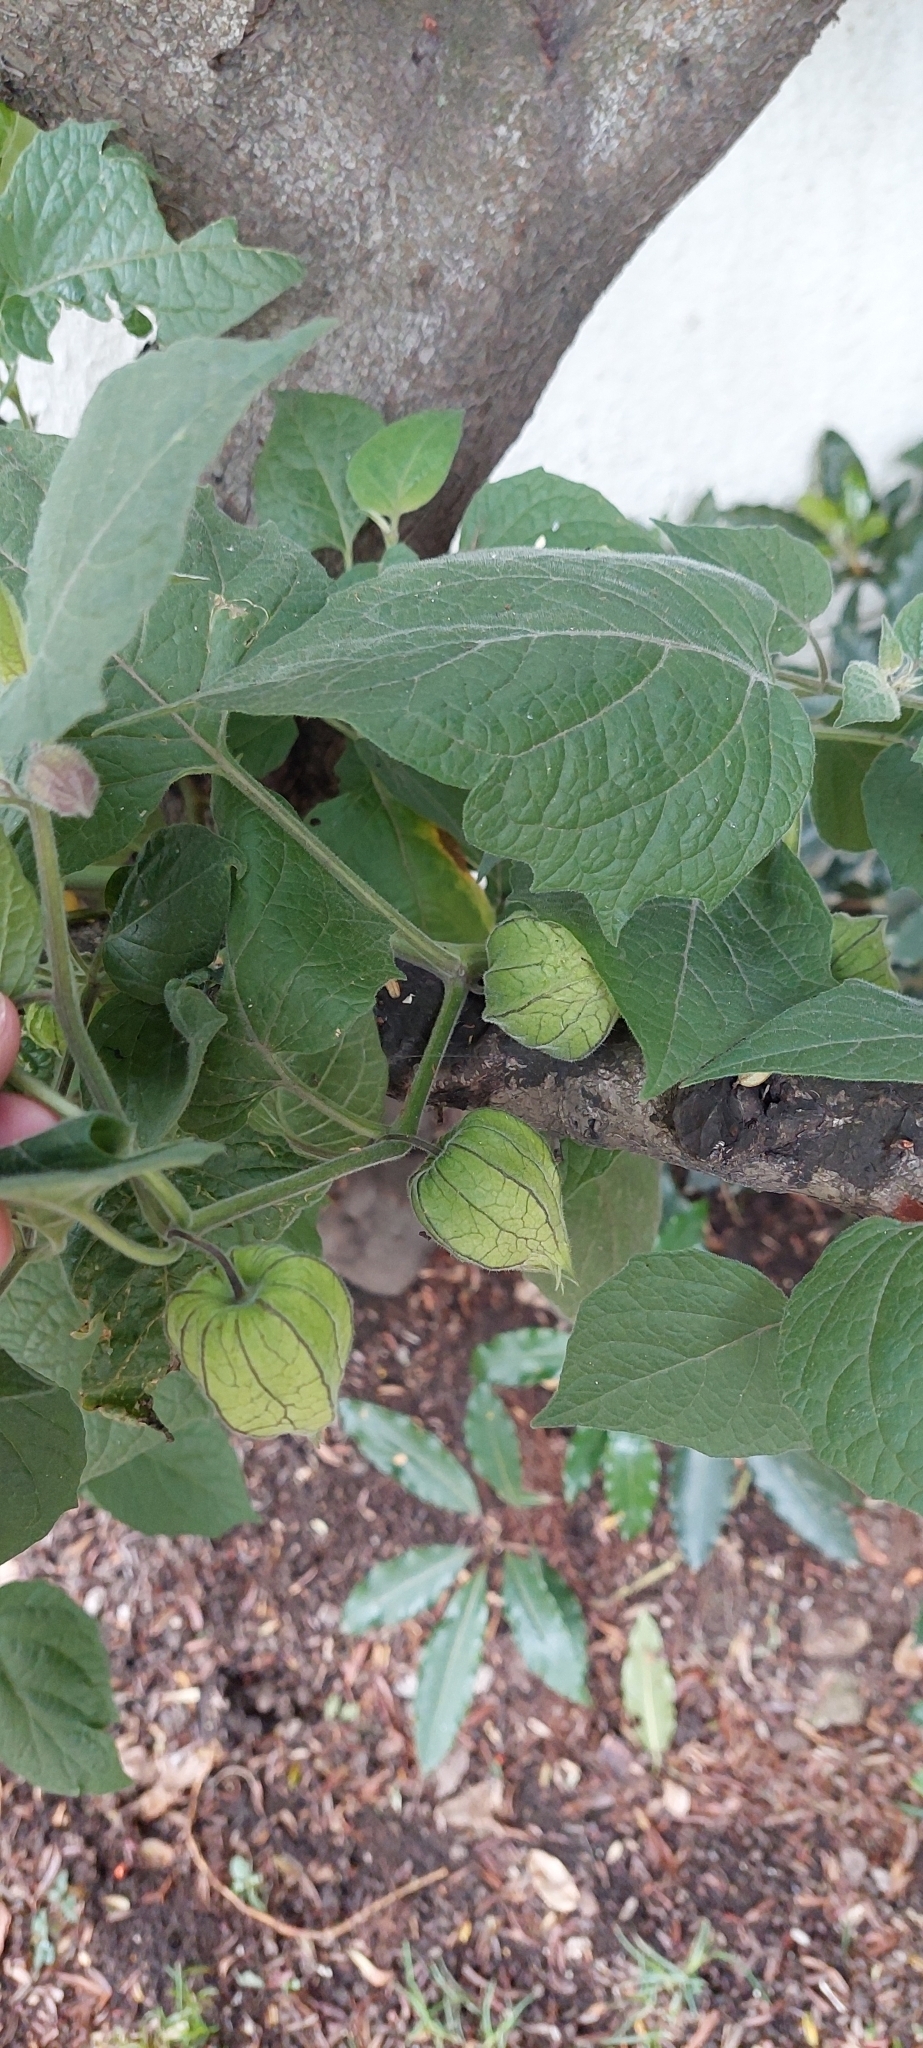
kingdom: Plantae
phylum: Tracheophyta
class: Magnoliopsida
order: Solanales
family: Solanaceae
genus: Physalis
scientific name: Physalis peruviana
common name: Cape-gooseberry
